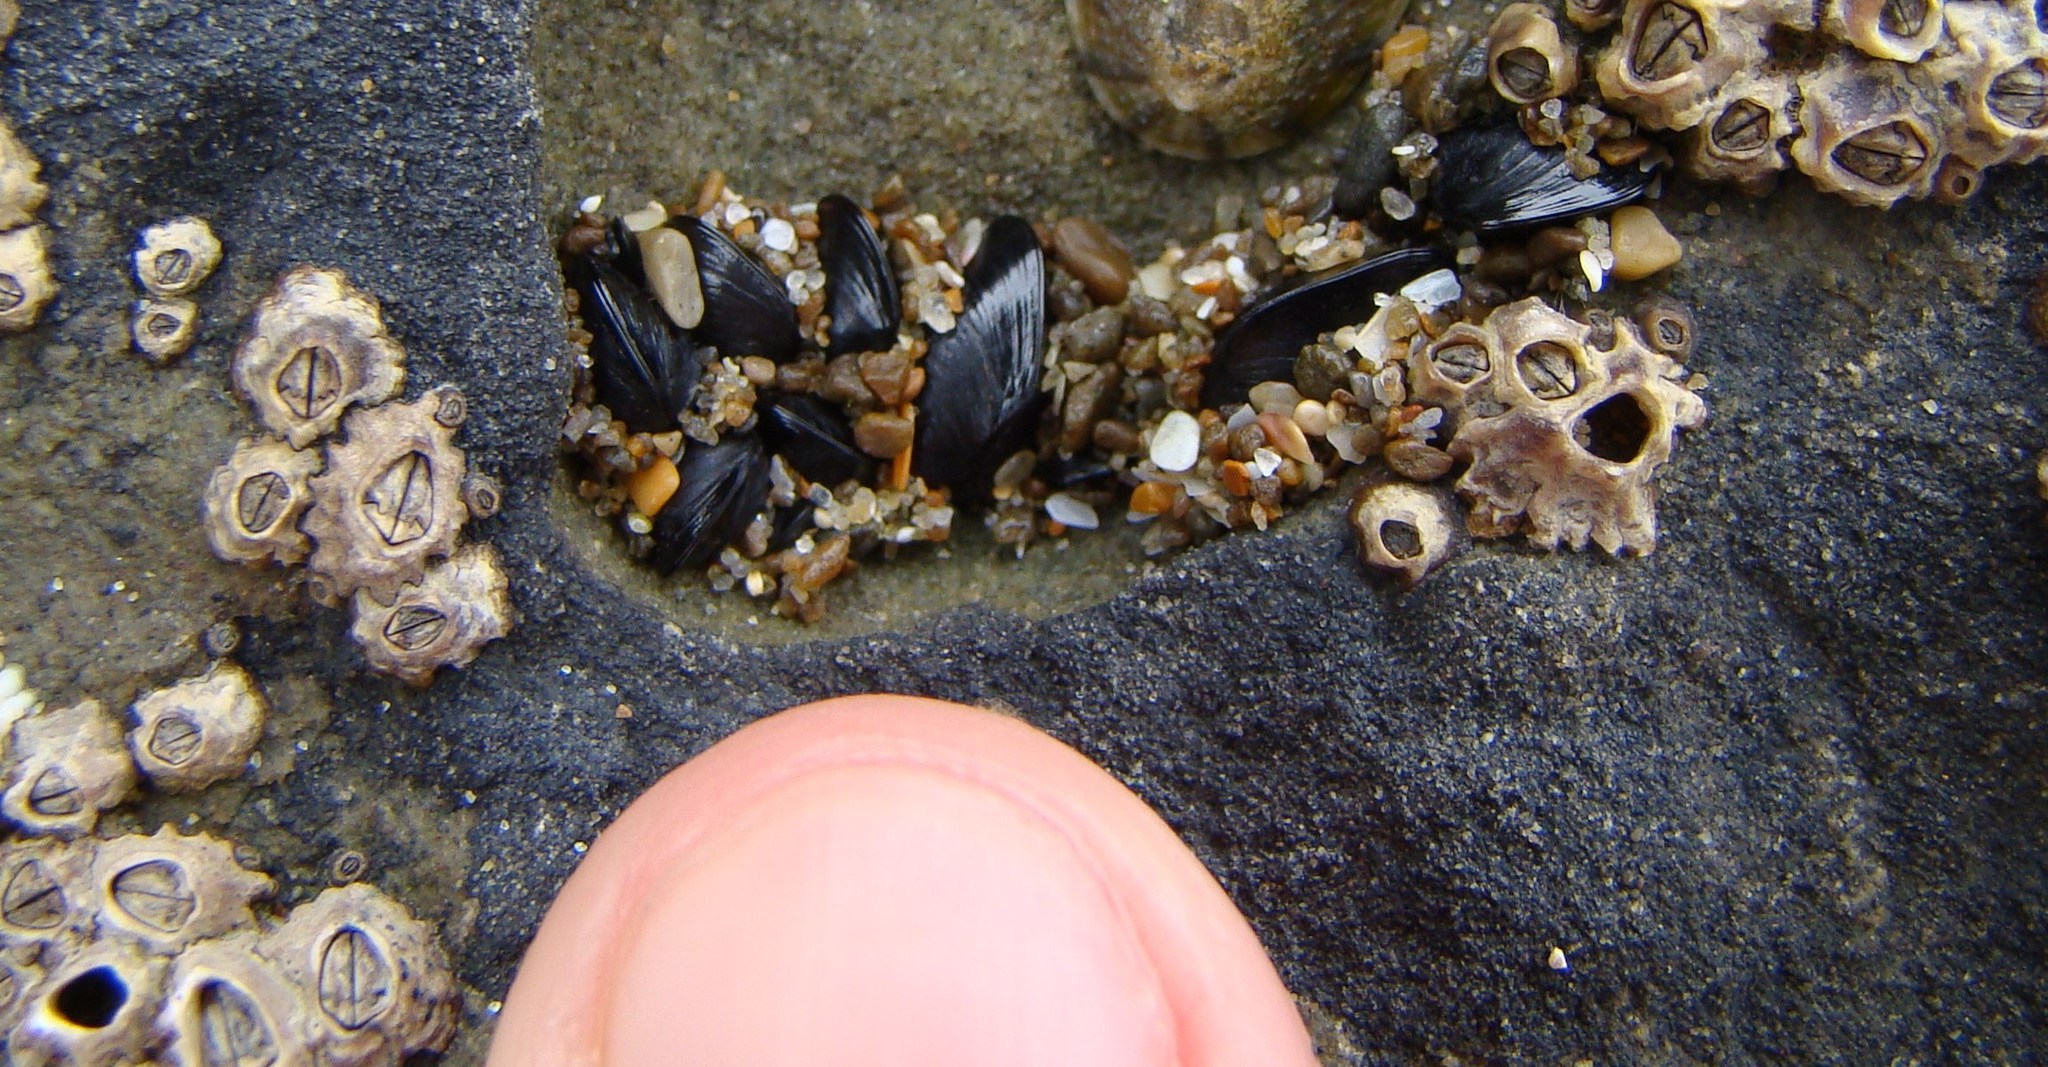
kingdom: Animalia
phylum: Mollusca
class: Bivalvia
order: Mytilida
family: Mytilidae
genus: Xenostrobus
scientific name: Xenostrobus neozelanicus
